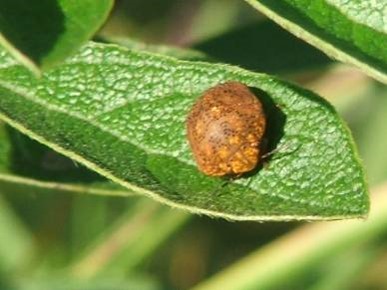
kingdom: Animalia
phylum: Arthropoda
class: Insecta
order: Hemiptera
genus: Steganocerus
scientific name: Steganocerus multipunctatus
